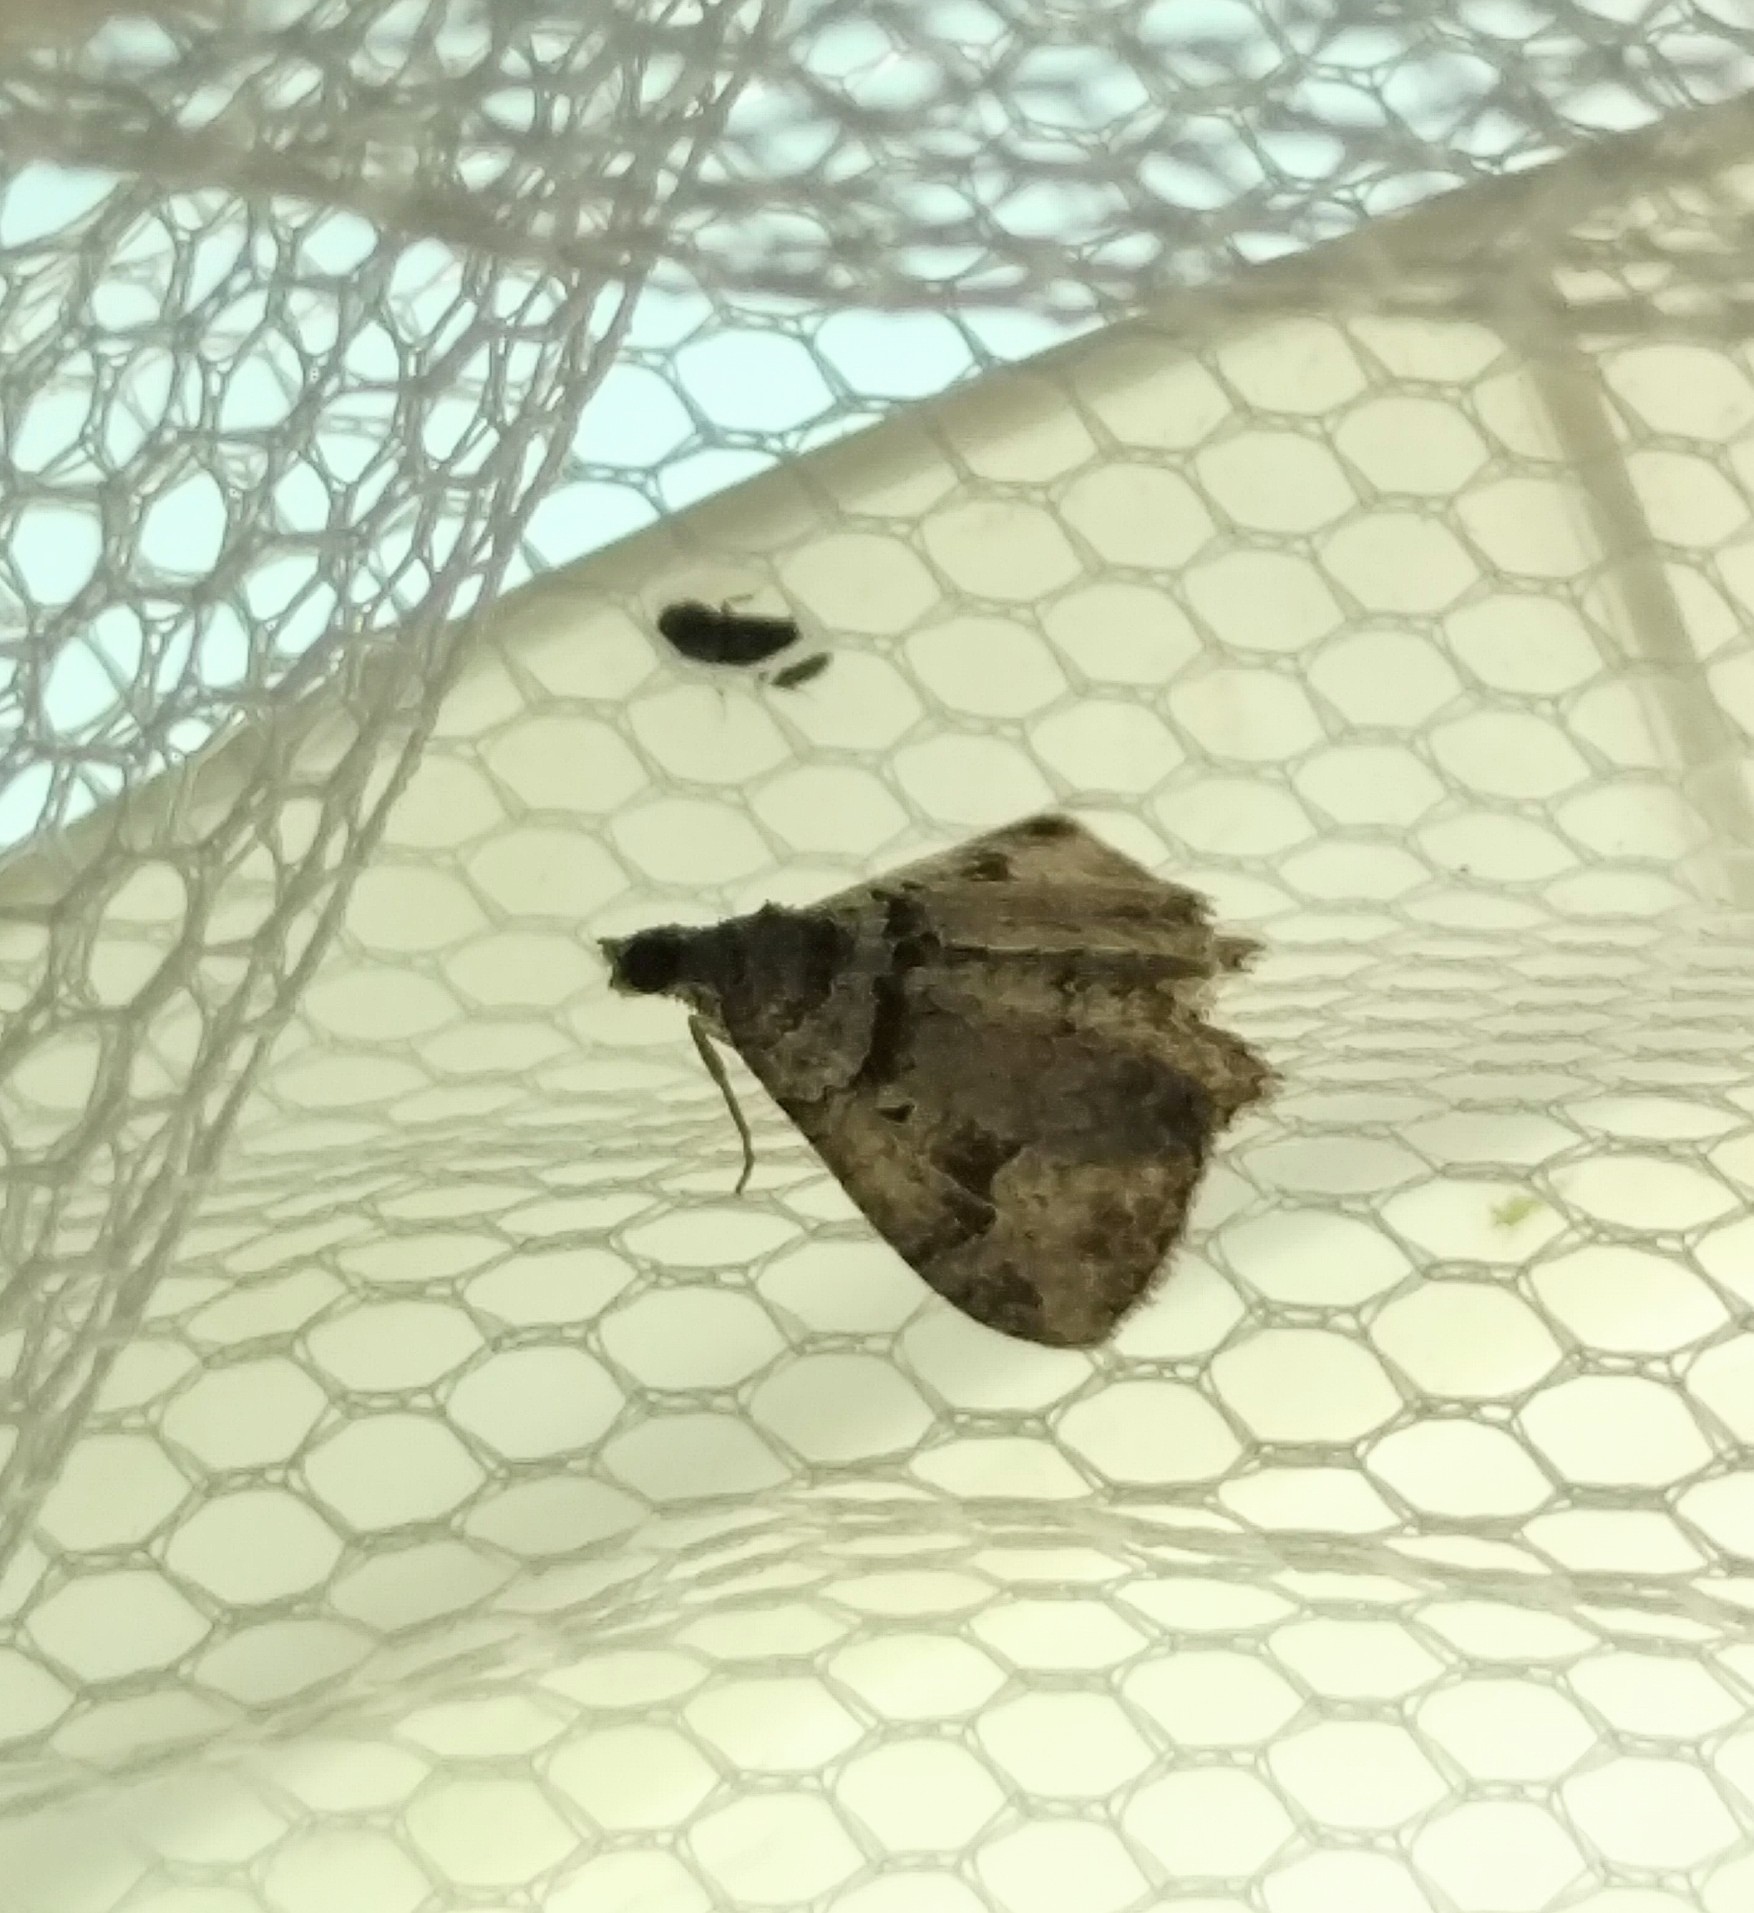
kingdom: Animalia
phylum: Arthropoda
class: Insecta
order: Lepidoptera
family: Geometridae
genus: Costaconvexa
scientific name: Costaconvexa centrostrigaria
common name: Bent-line carpet
